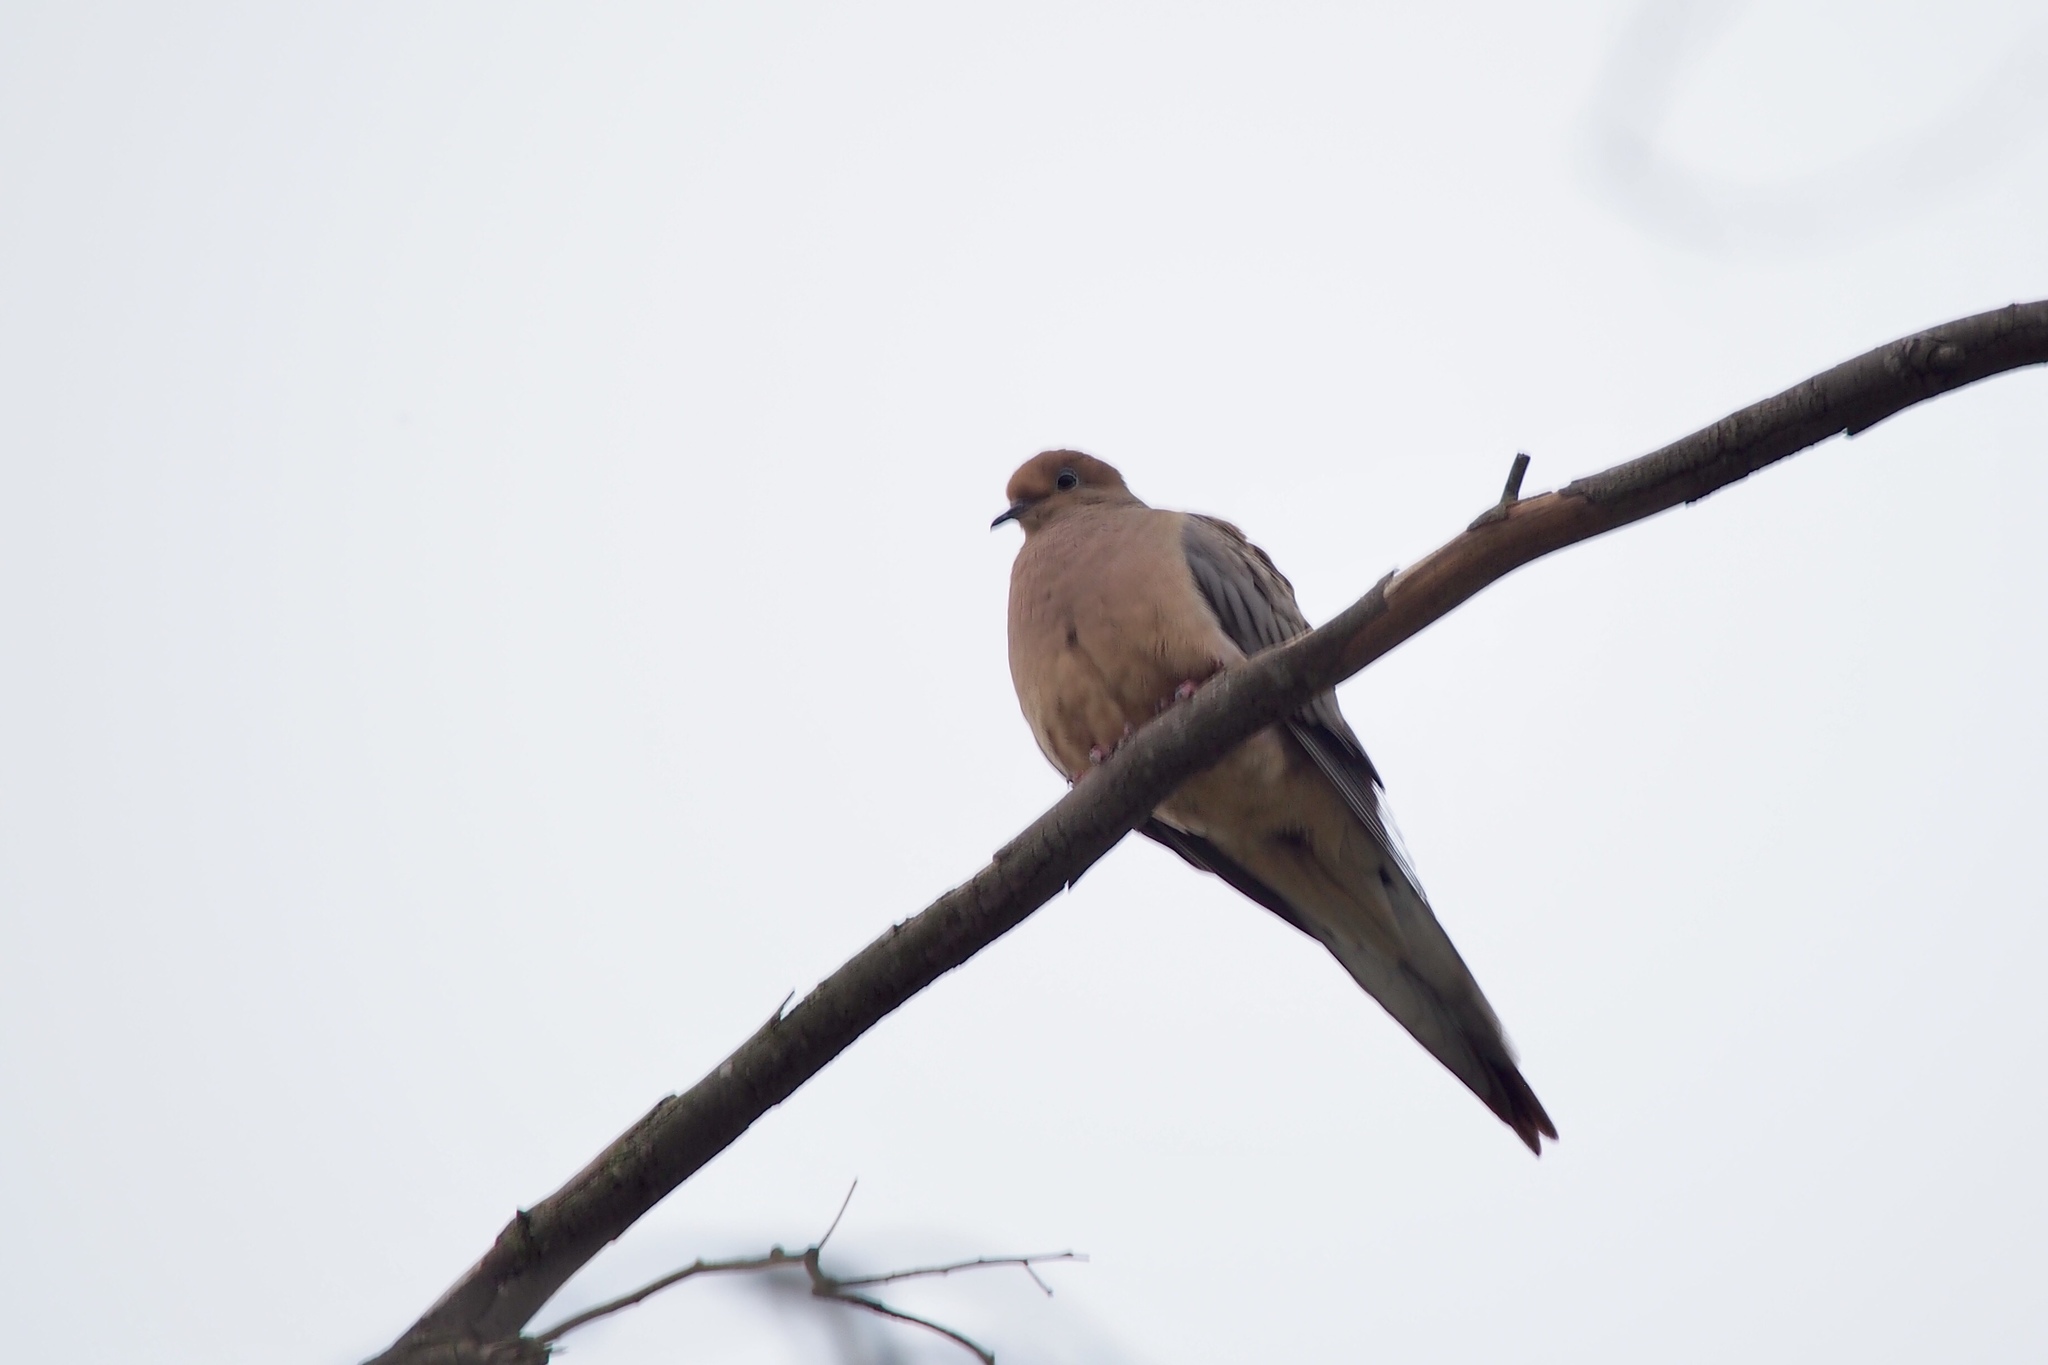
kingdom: Animalia
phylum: Chordata
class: Aves
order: Columbiformes
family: Columbidae
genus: Zenaida
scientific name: Zenaida macroura
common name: Mourning dove
